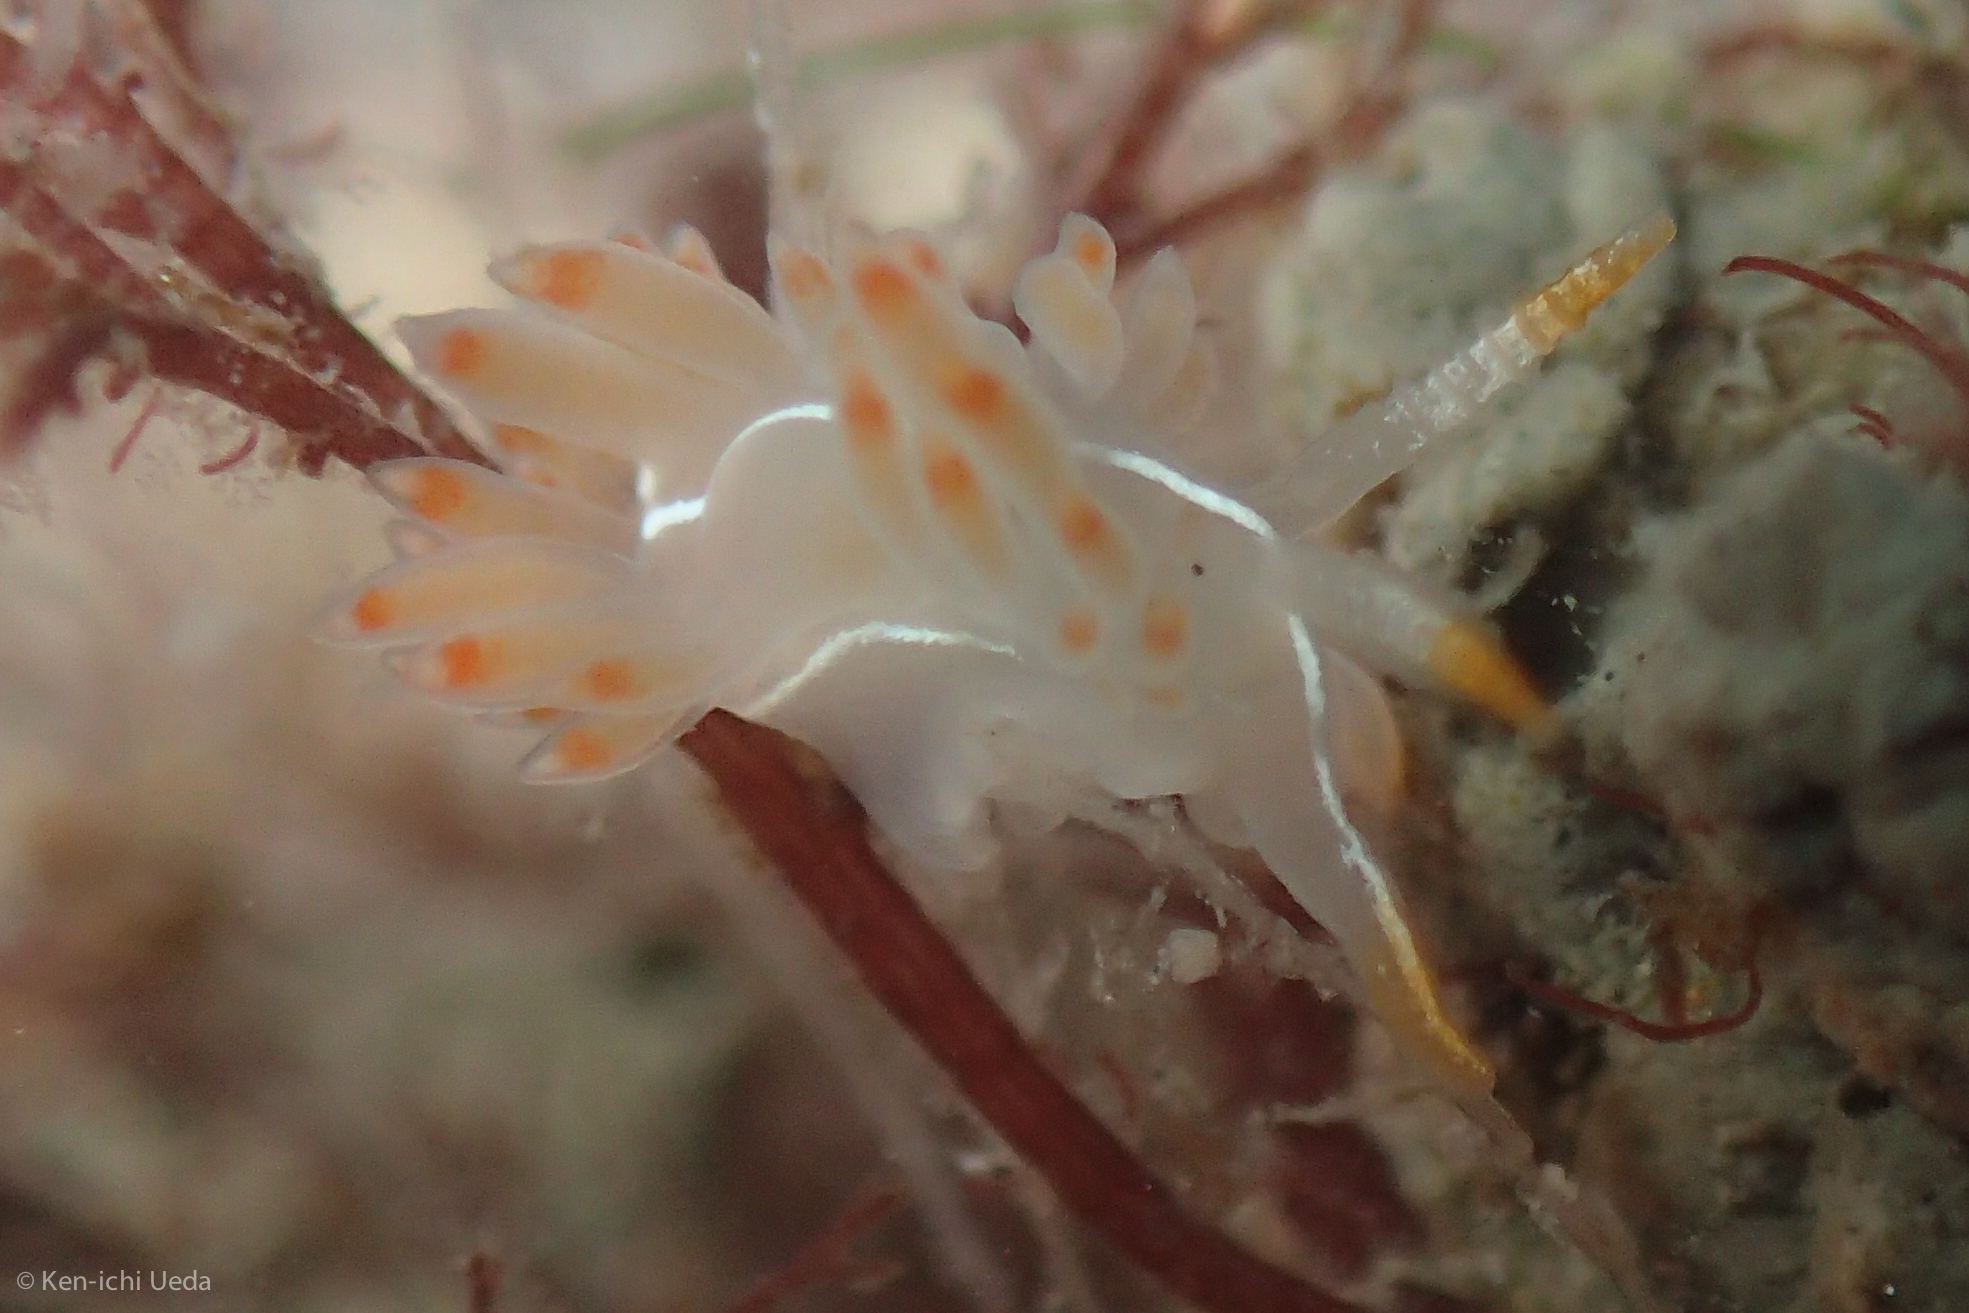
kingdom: Animalia
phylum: Mollusca
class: Gastropoda
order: Nudibranchia
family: Coryphellidae
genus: Coryphella
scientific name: Coryphella trilineata
